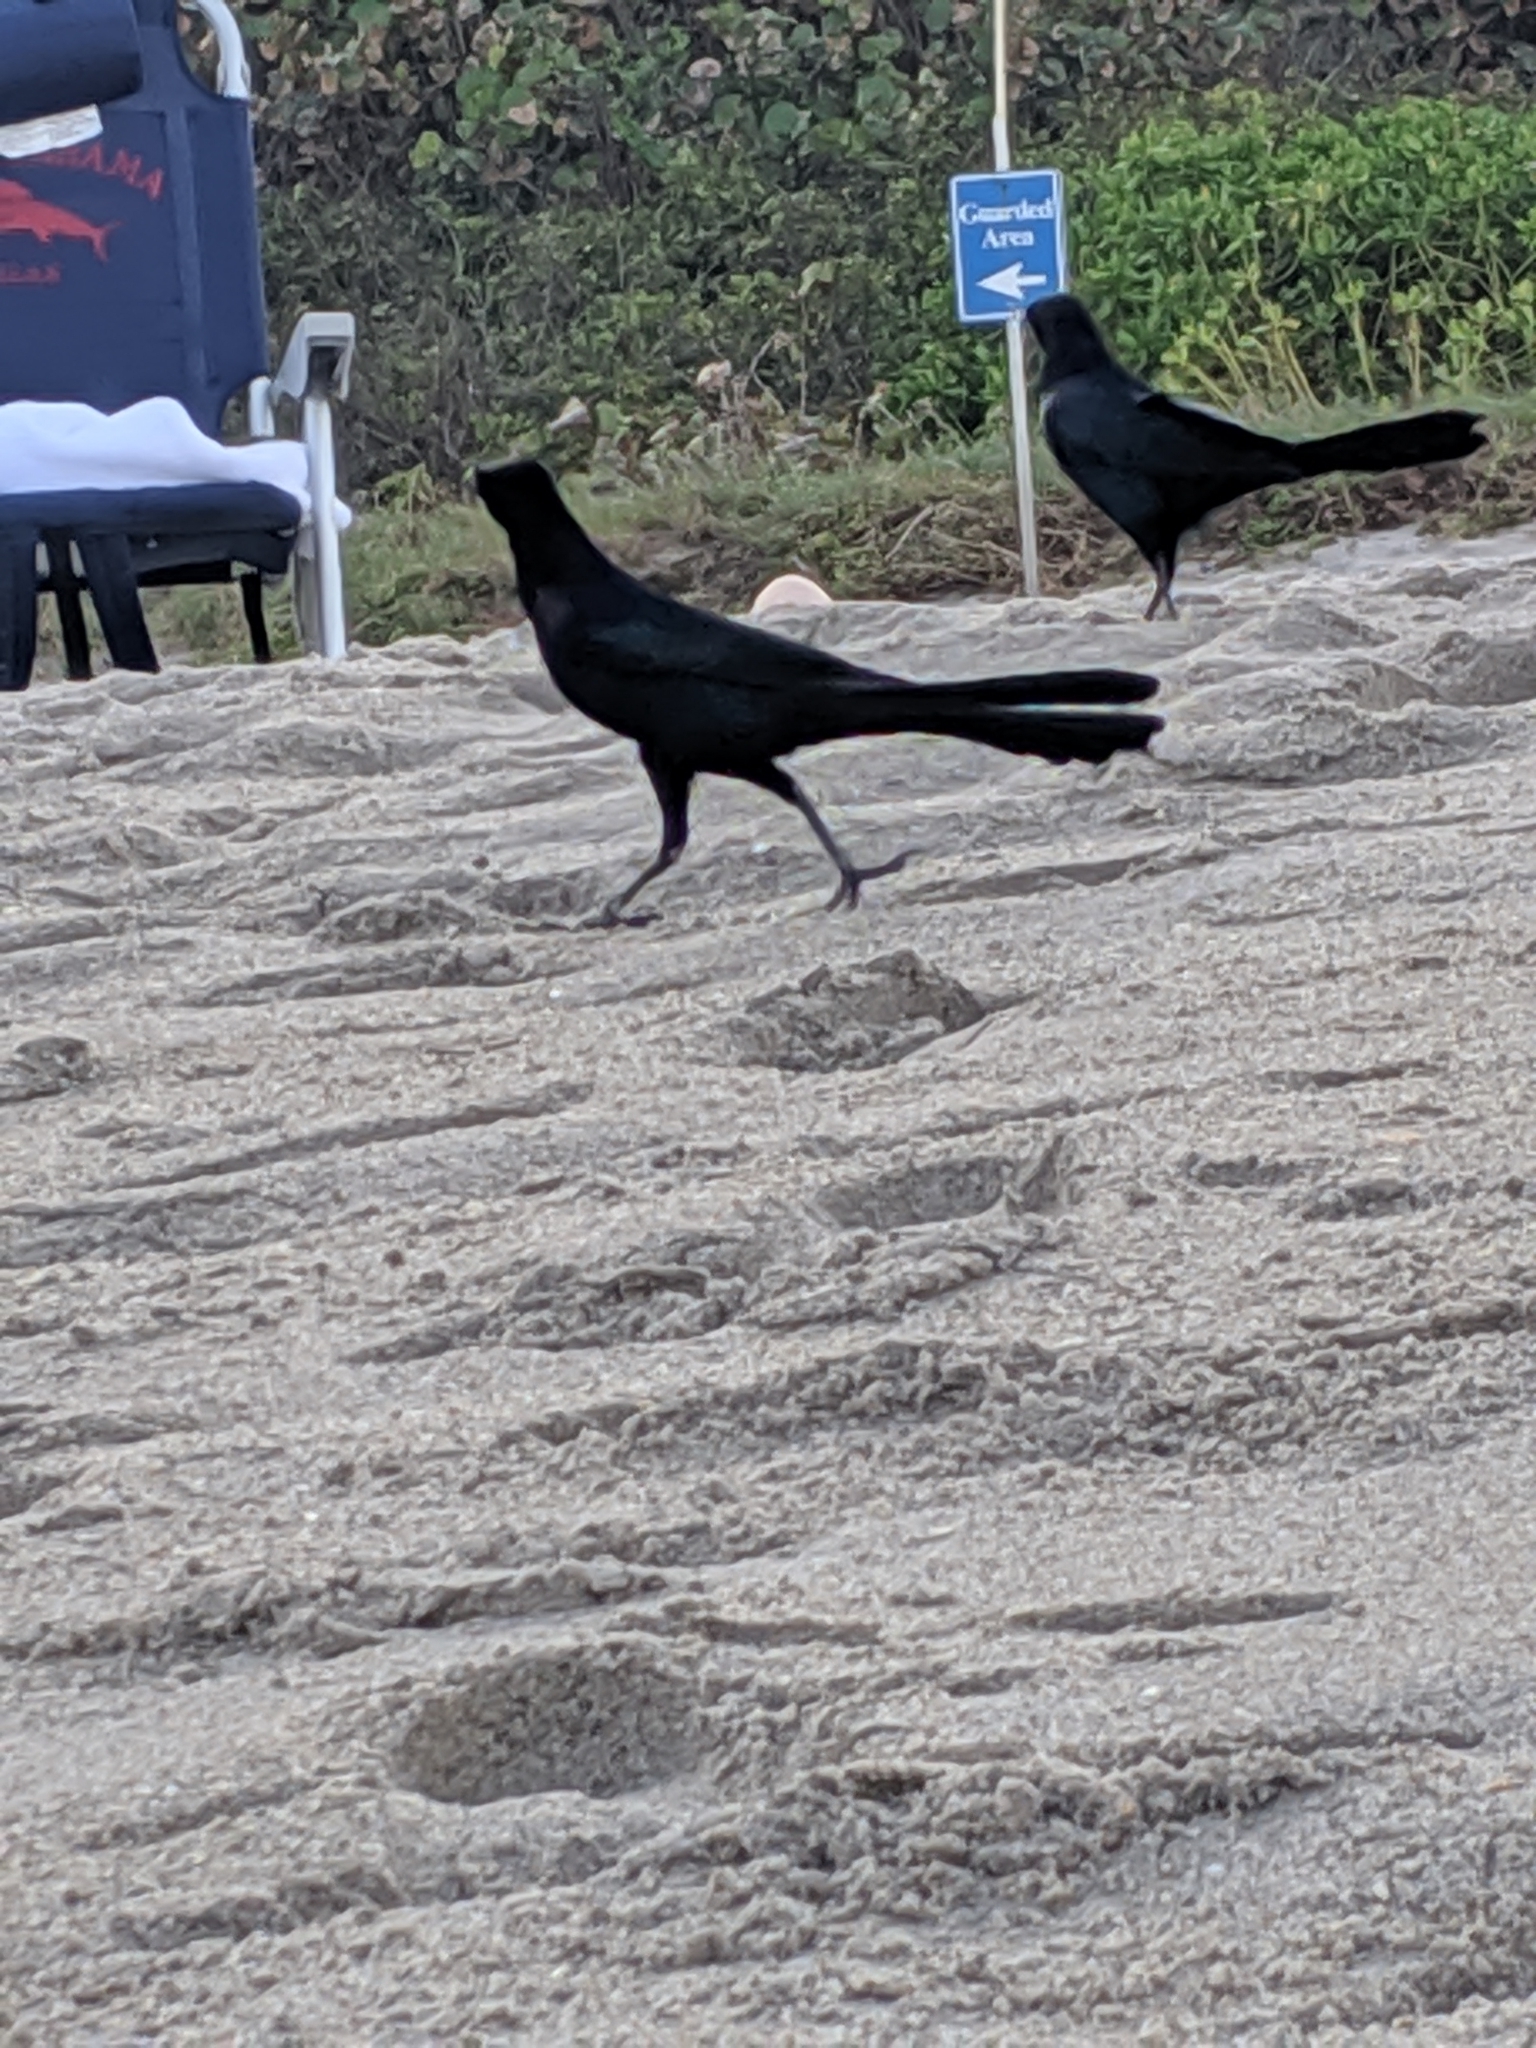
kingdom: Animalia
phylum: Chordata
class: Aves
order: Passeriformes
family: Icteridae
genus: Quiscalus
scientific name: Quiscalus major
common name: Boat-tailed grackle
